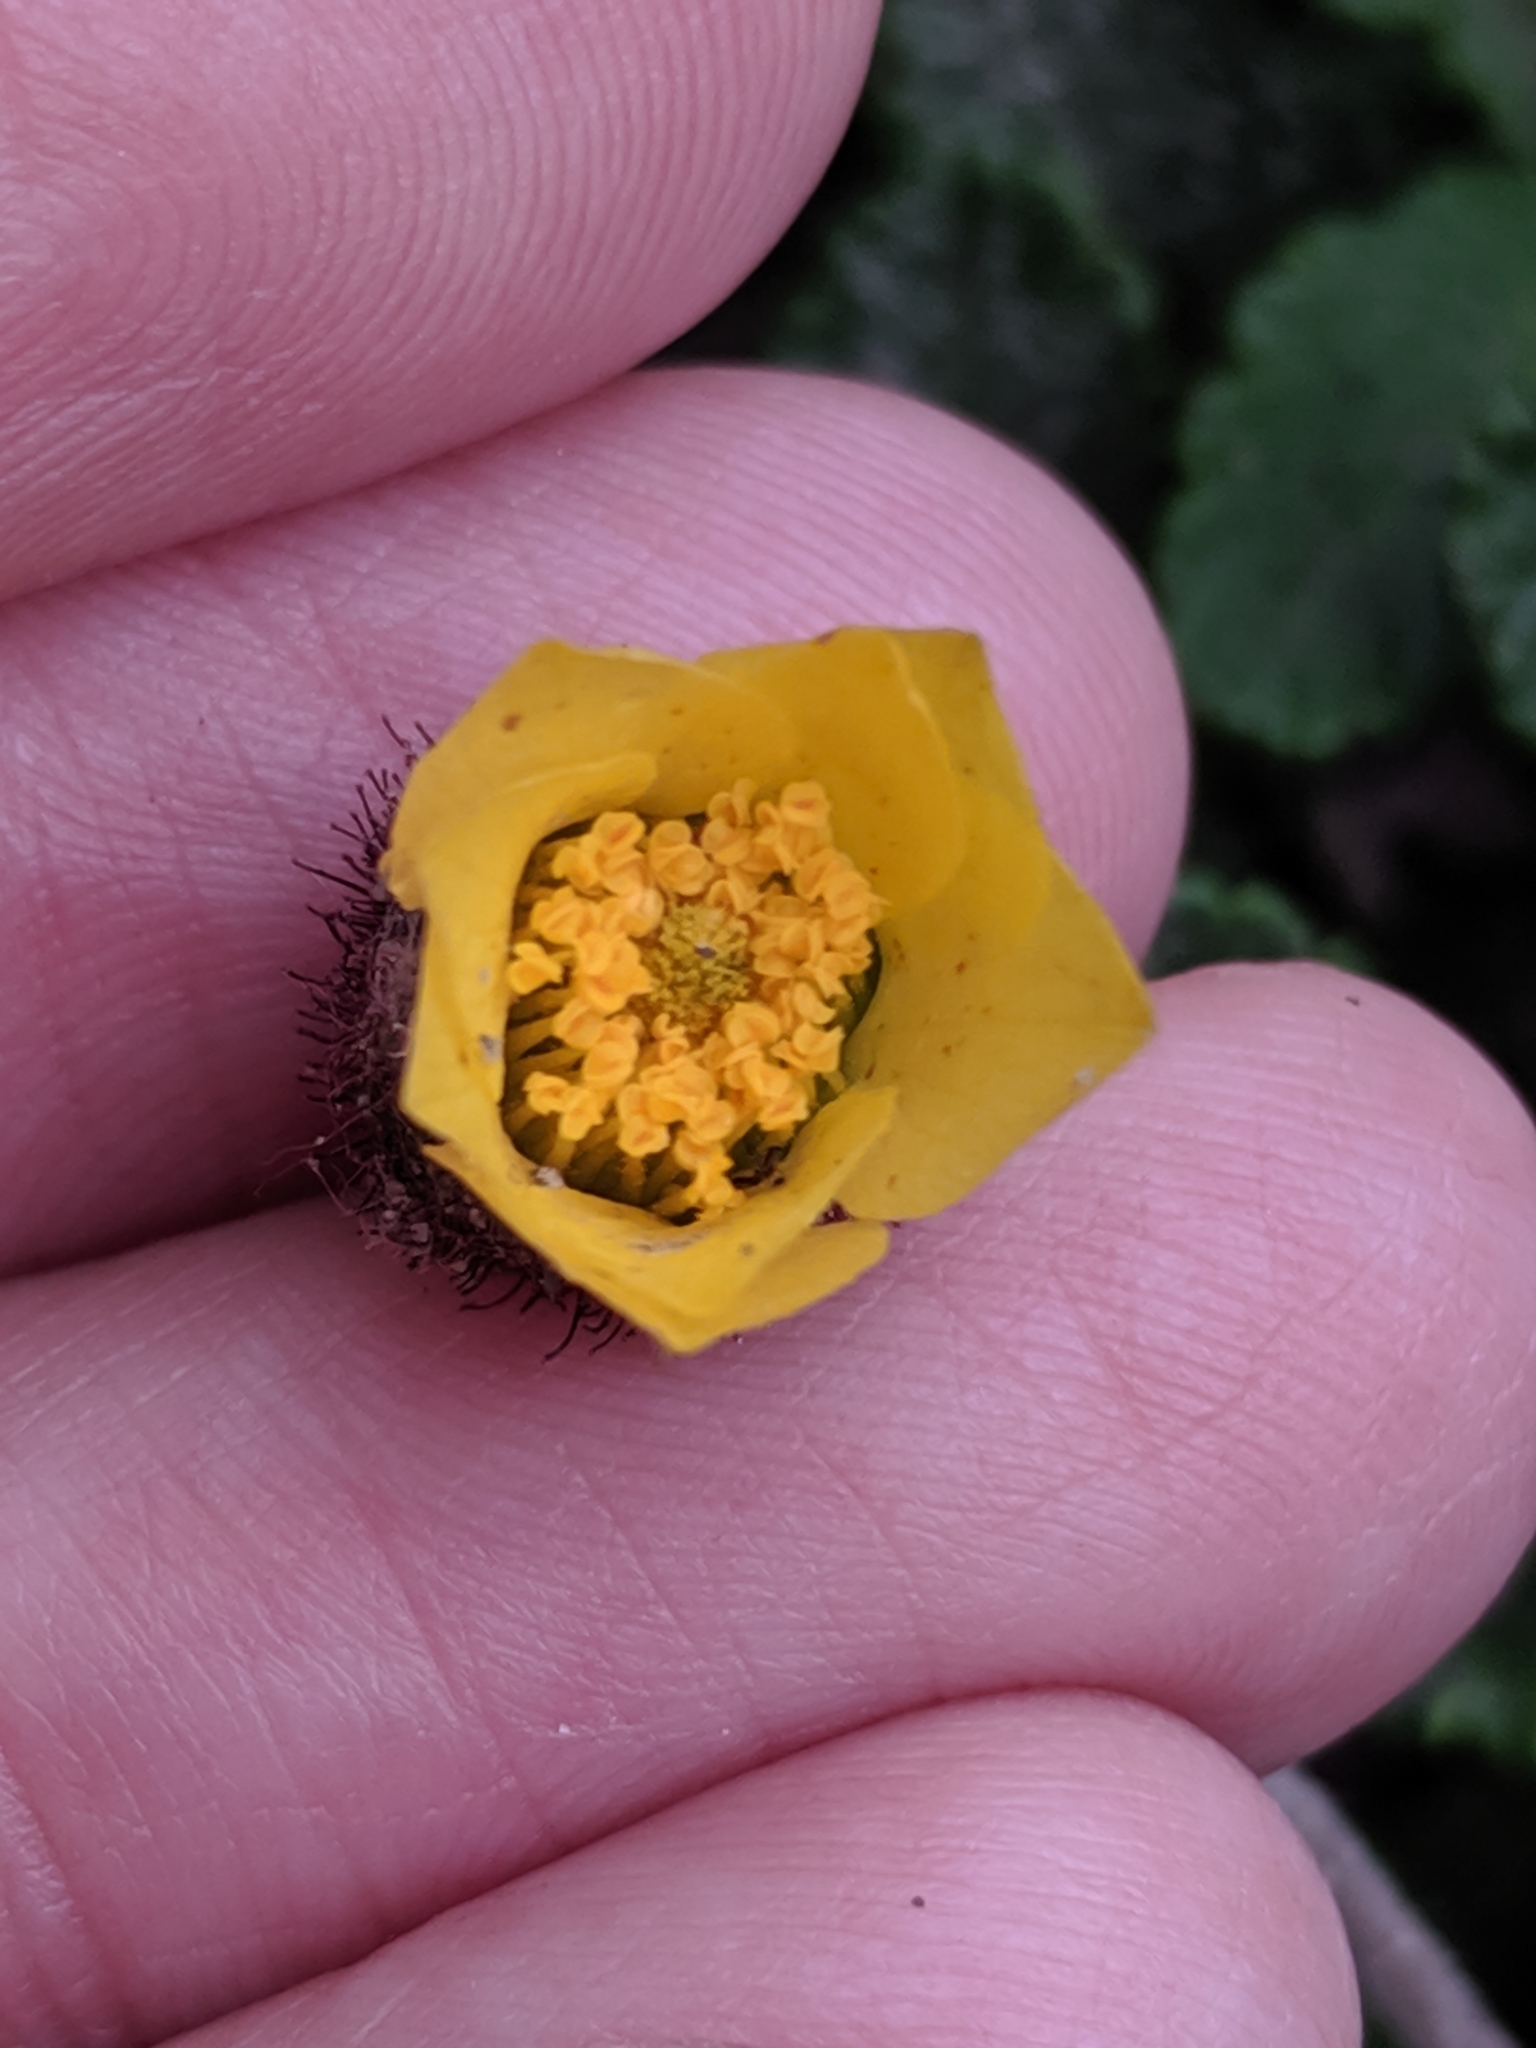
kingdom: Plantae
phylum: Tracheophyta
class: Magnoliopsida
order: Rosales
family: Rosaceae
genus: Dryas
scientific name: Dryas drummondii
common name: Drummond's dryad
